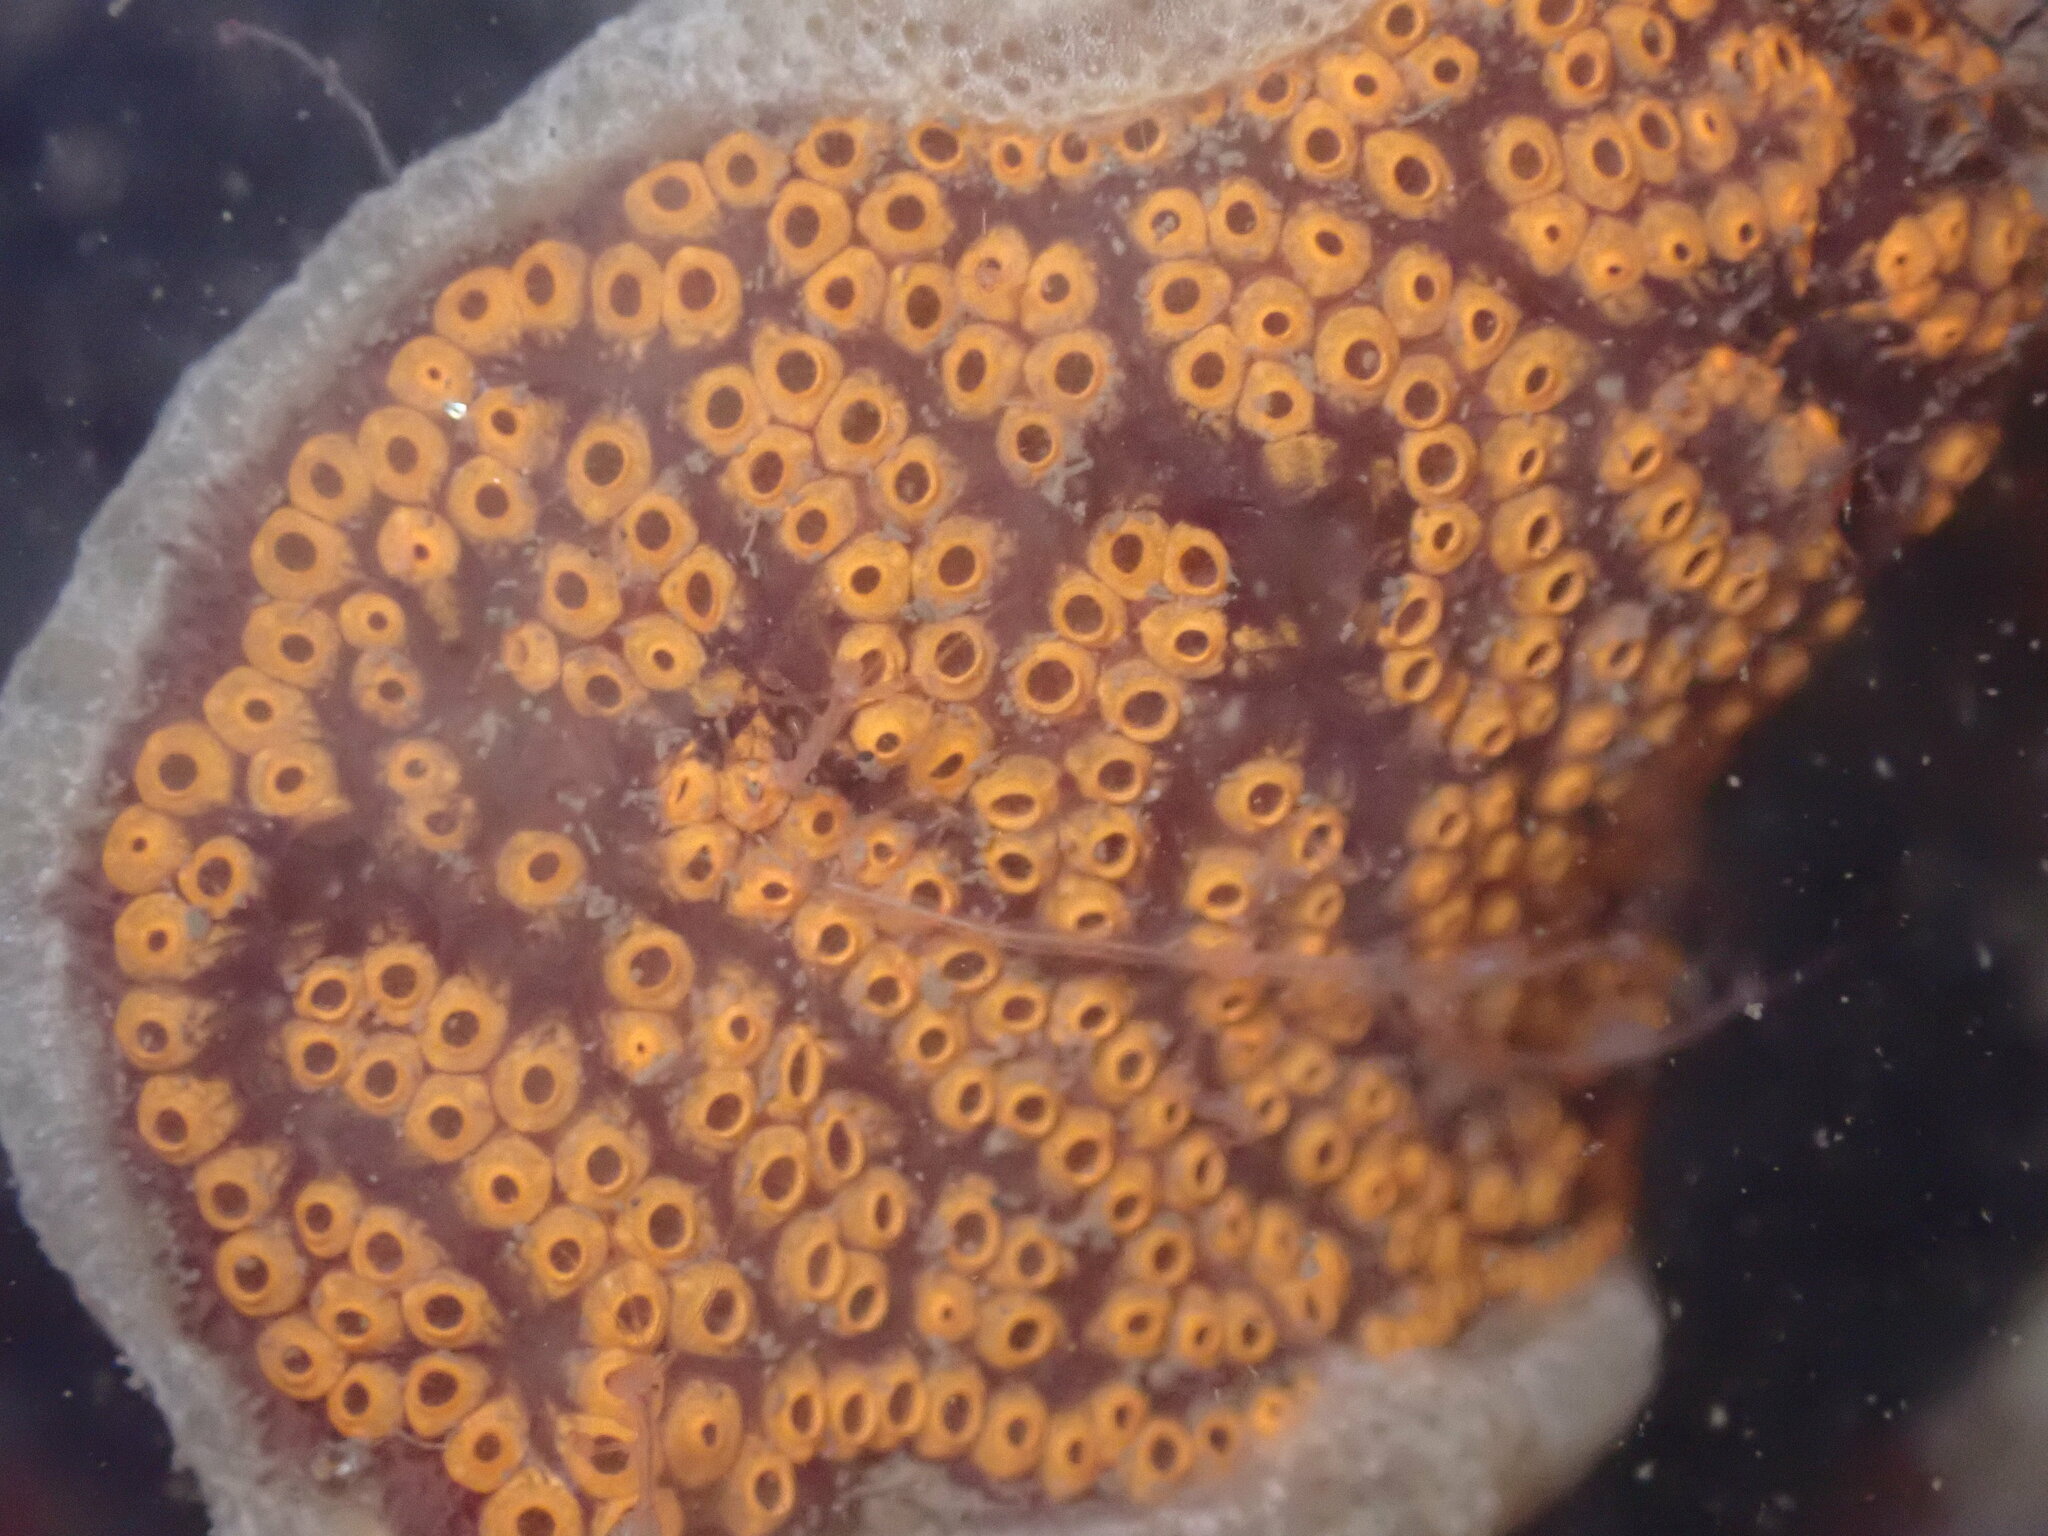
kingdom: Animalia
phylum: Chordata
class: Ascidiacea
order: Stolidobranchia
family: Styelidae
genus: Botrylloides
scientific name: Botrylloides diegensis
